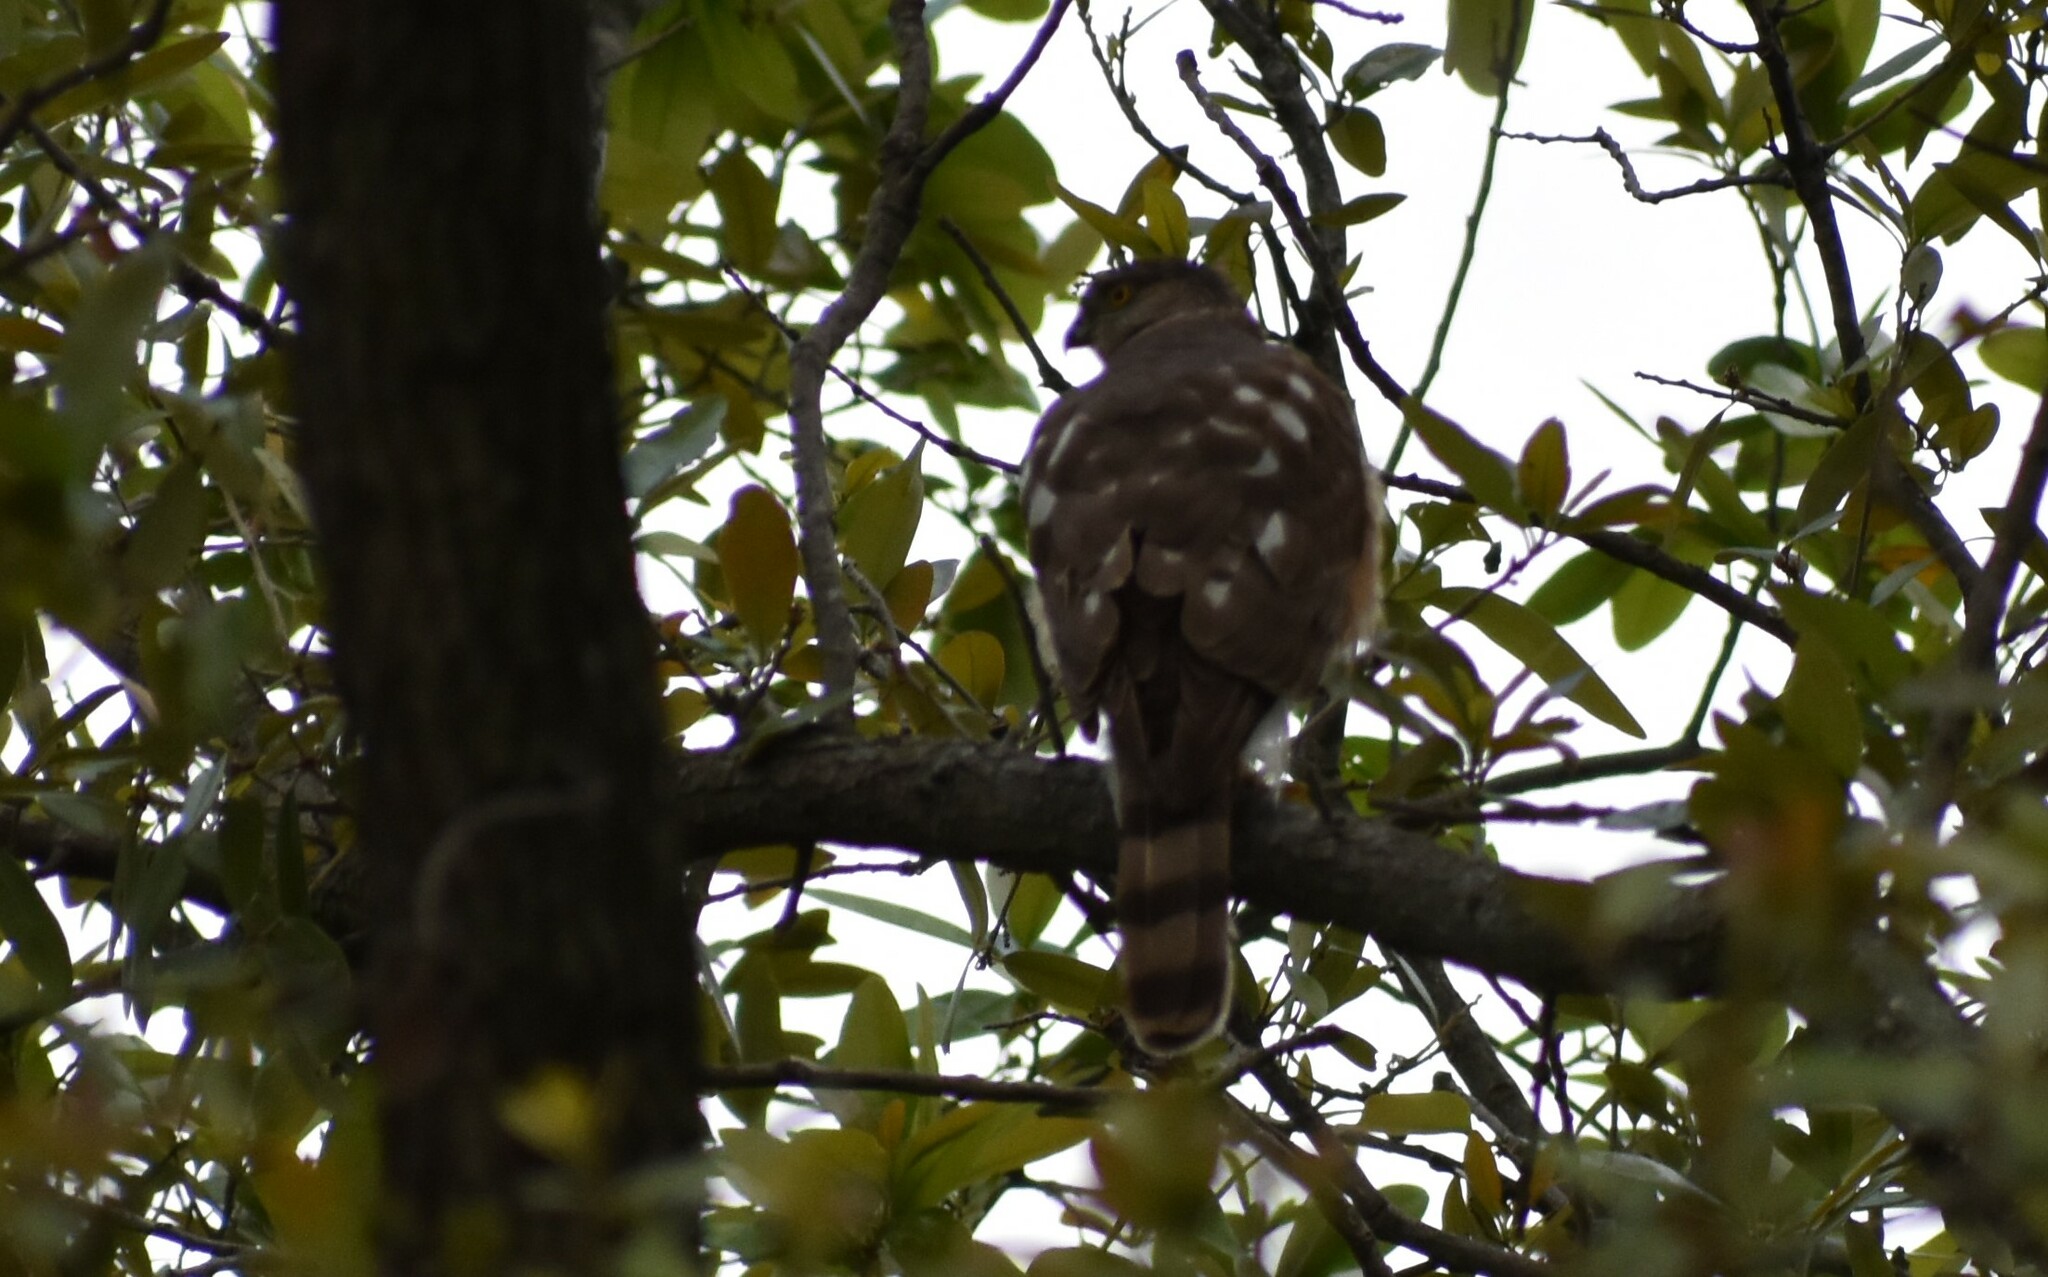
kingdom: Animalia
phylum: Chordata
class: Aves
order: Accipitriformes
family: Accipitridae
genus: Accipiter
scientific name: Accipiter cooperii
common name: Cooper's hawk
